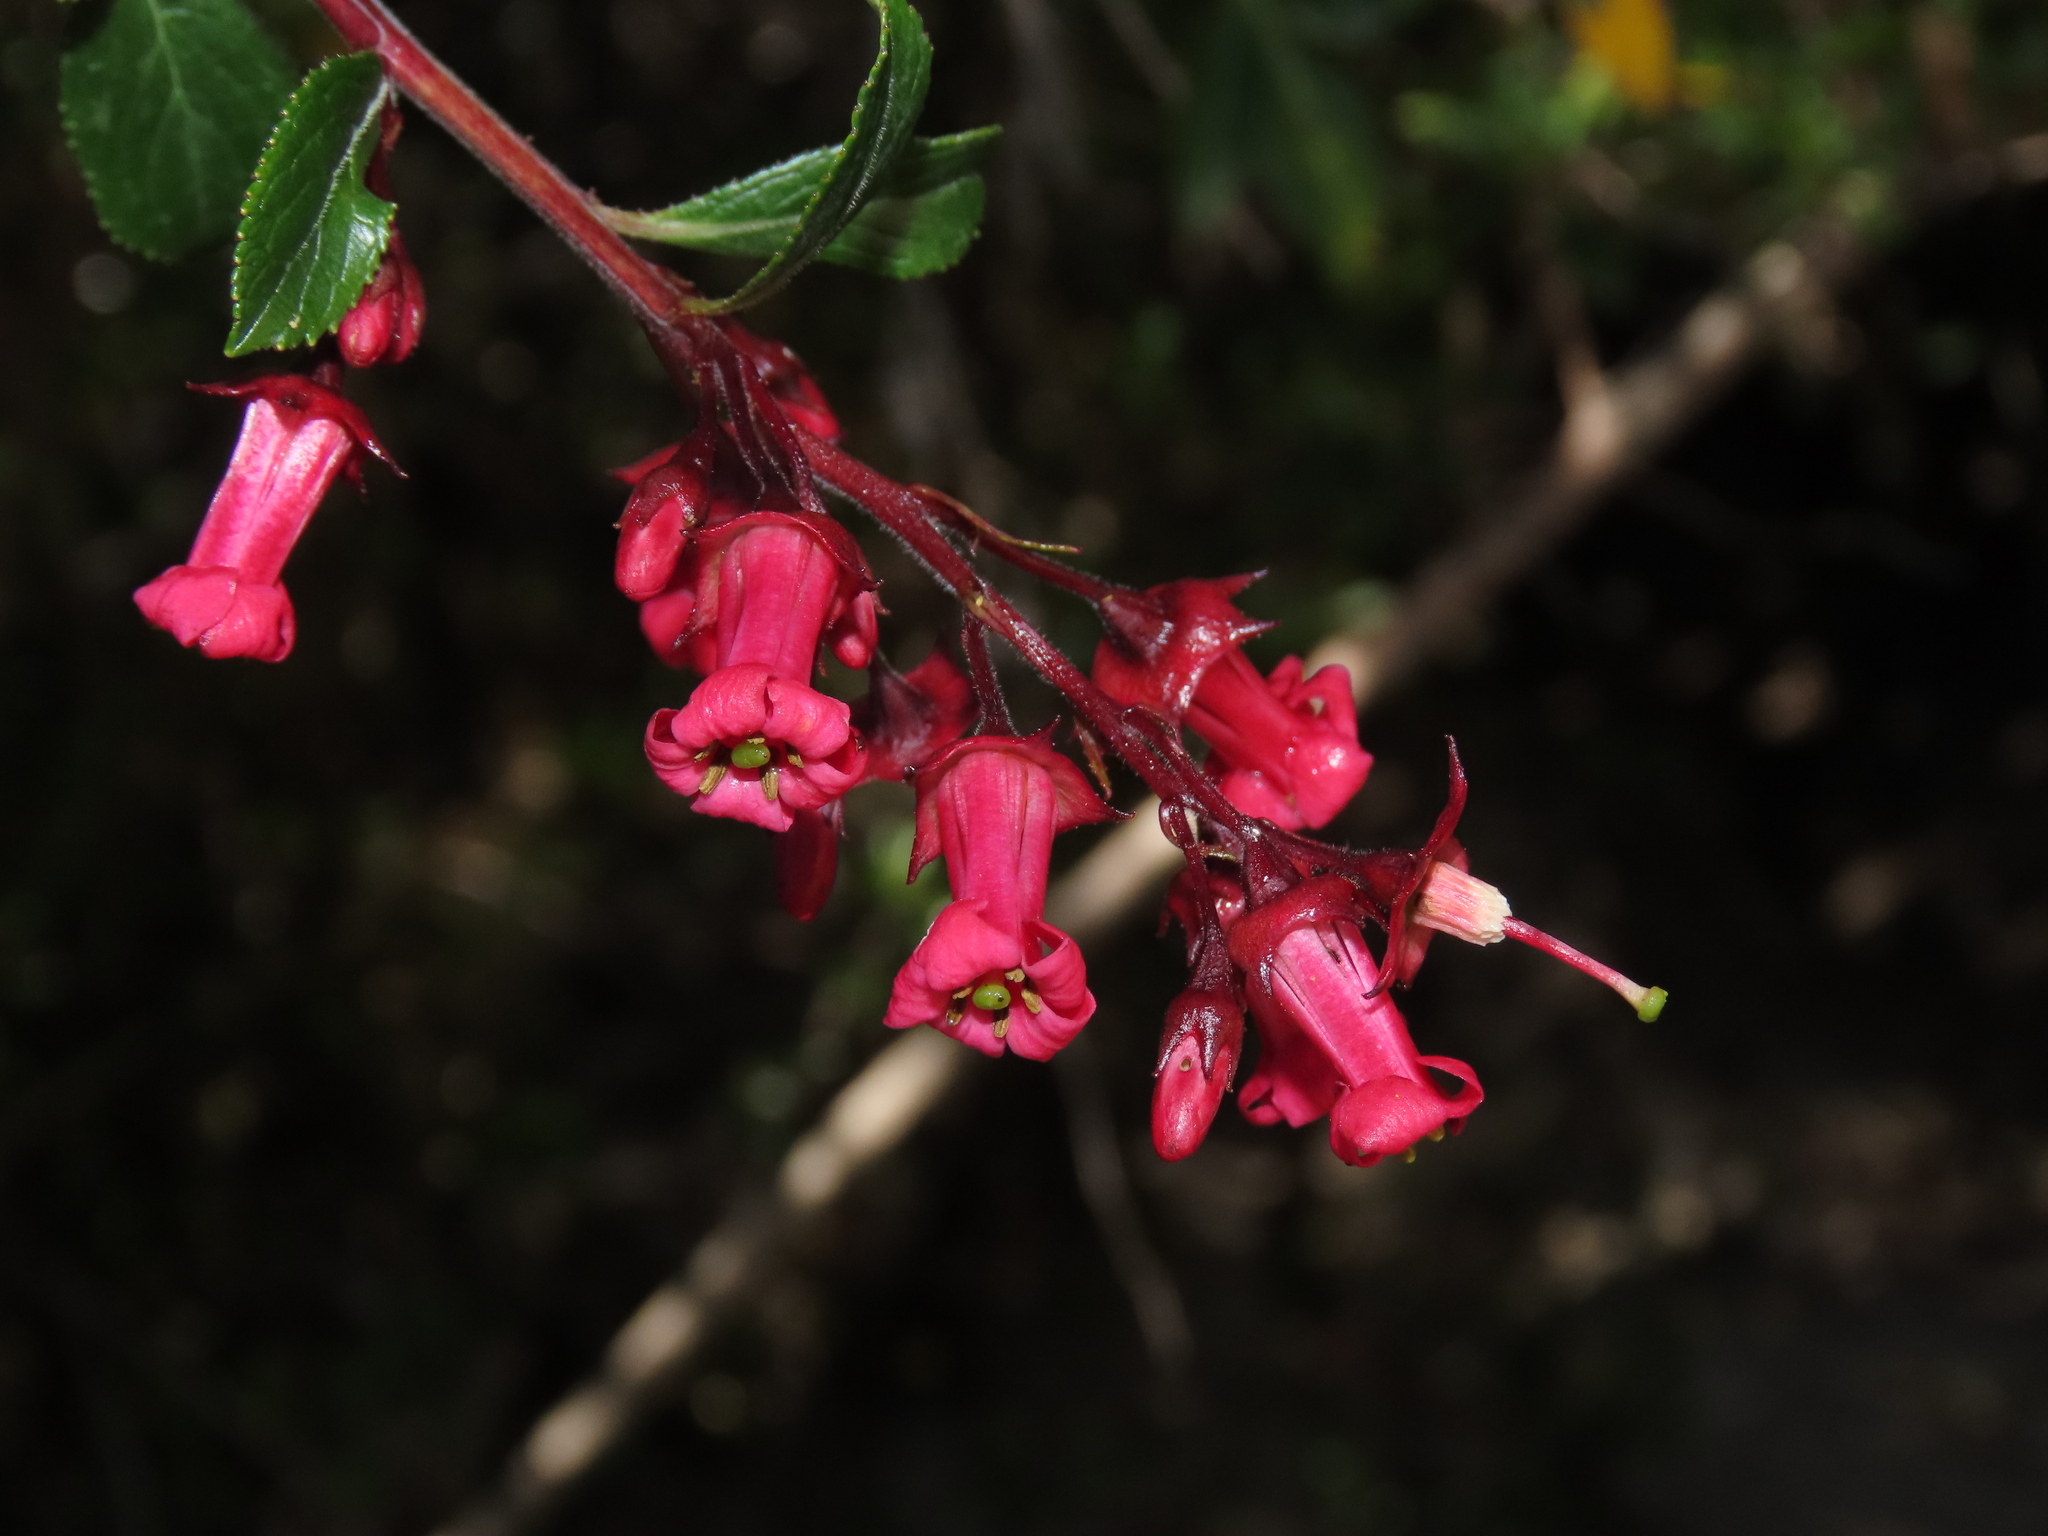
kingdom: Plantae
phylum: Tracheophyta
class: Magnoliopsida
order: Escalloniales
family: Escalloniaceae
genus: Escallonia
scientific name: Escallonia rubra
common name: Redclaws
